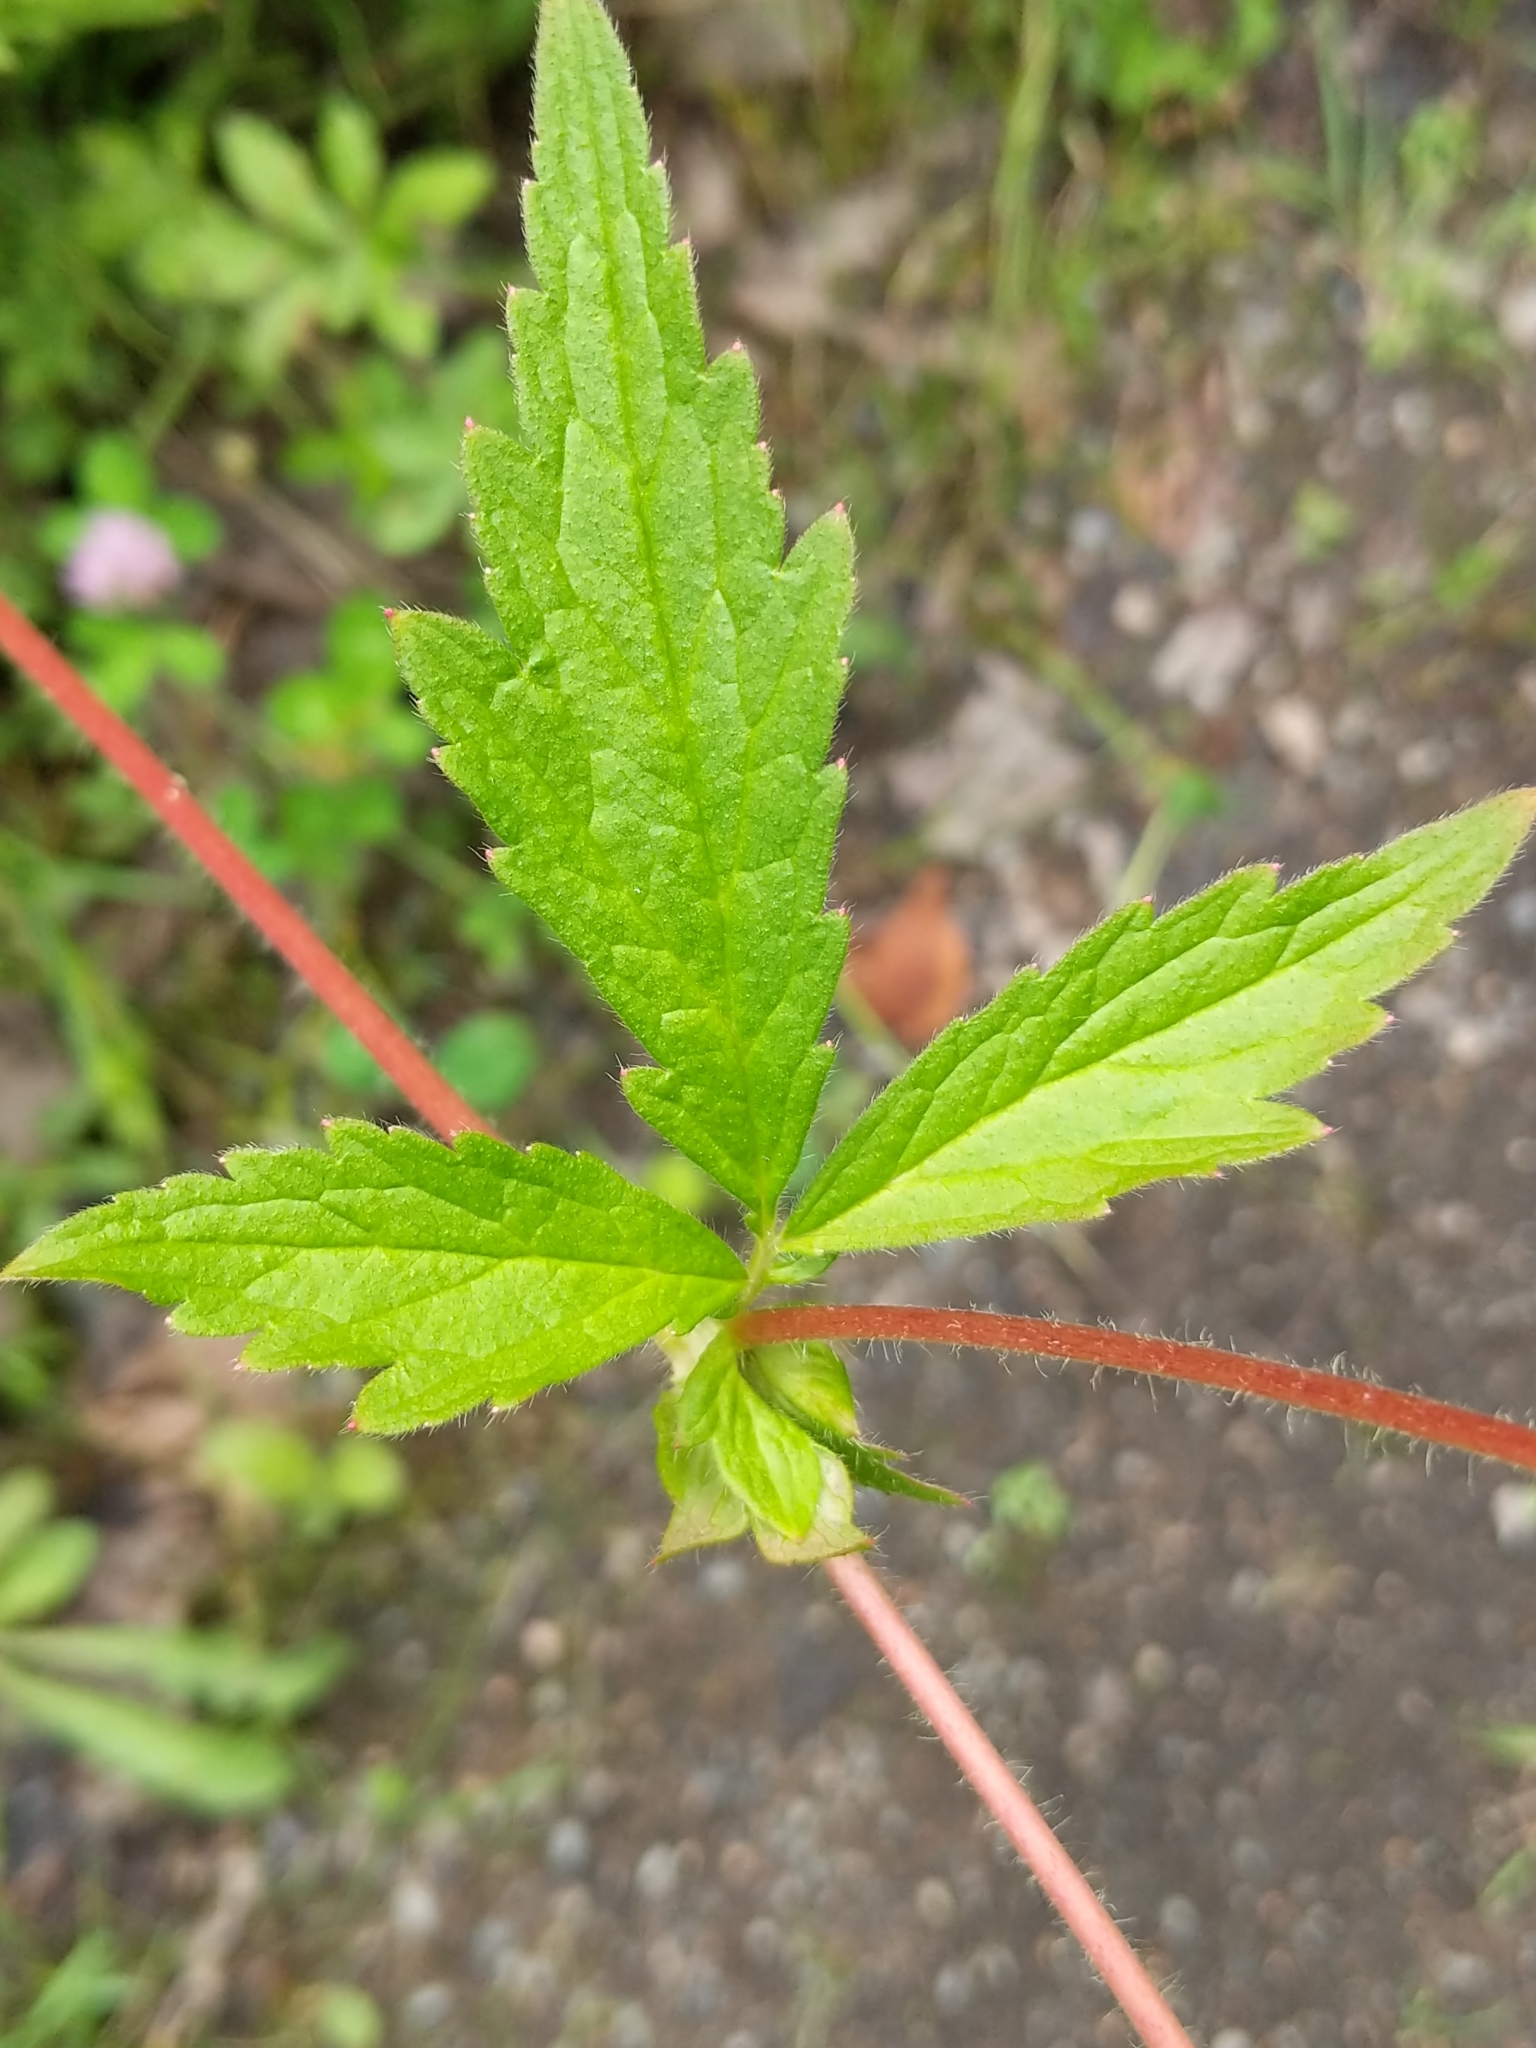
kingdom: Plantae
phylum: Tracheophyta
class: Magnoliopsida
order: Rosales
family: Rosaceae
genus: Geum
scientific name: Geum aleppicum
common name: Yellow avens
